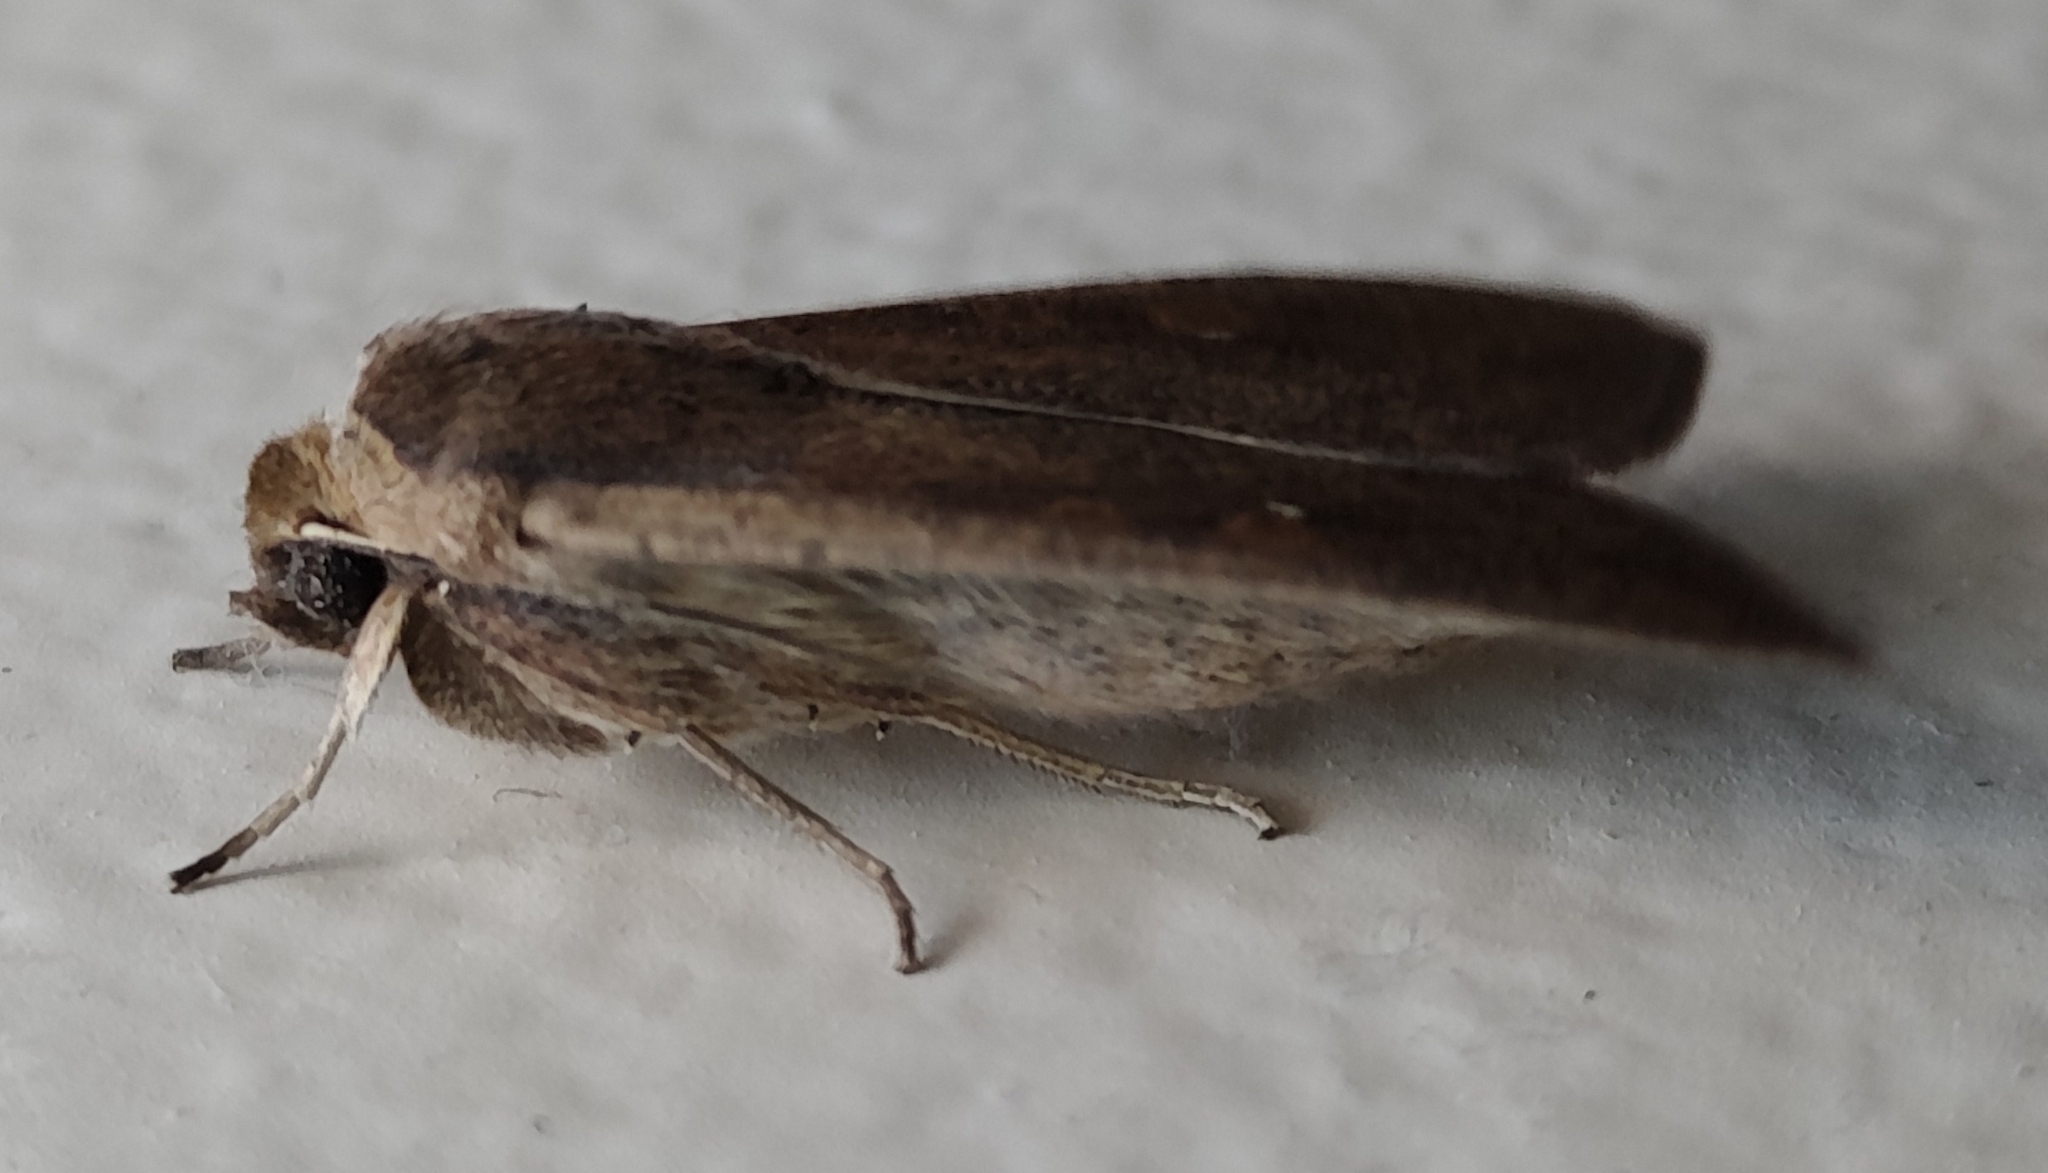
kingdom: Animalia
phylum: Arthropoda
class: Insecta
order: Lepidoptera
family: Noctuidae
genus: Mythimna
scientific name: Mythimna unipuncta
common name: White-speck
